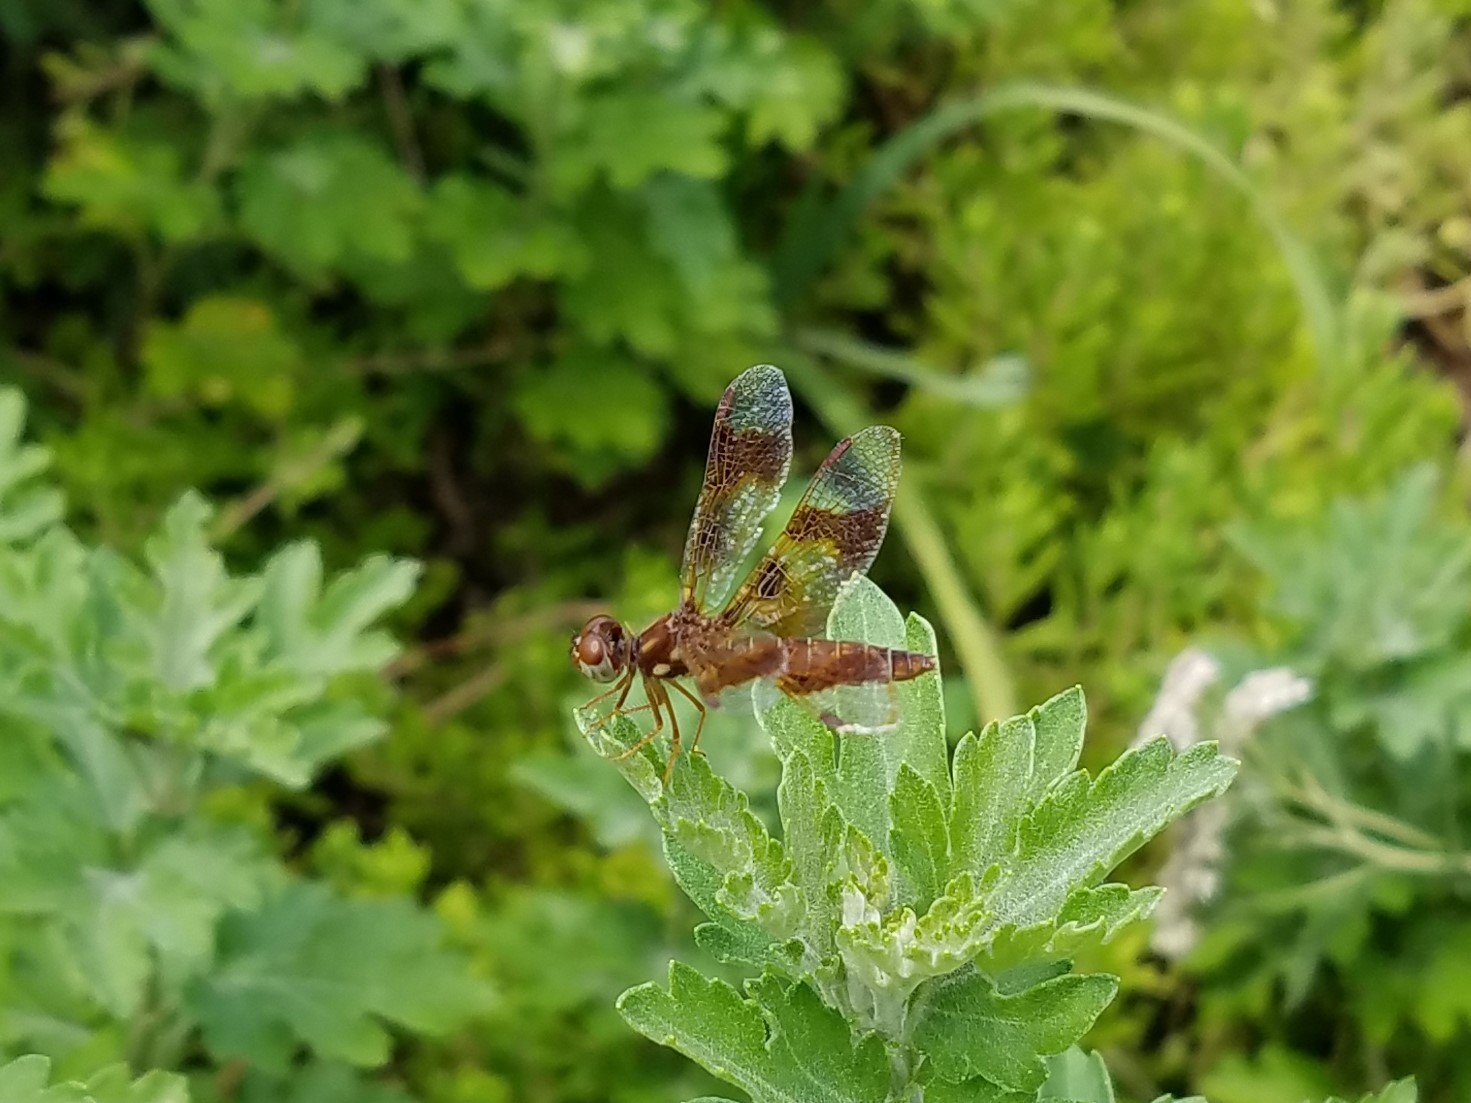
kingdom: Animalia
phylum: Arthropoda
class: Insecta
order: Odonata
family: Libellulidae
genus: Perithemis
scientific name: Perithemis tenera
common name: Eastern amberwing
